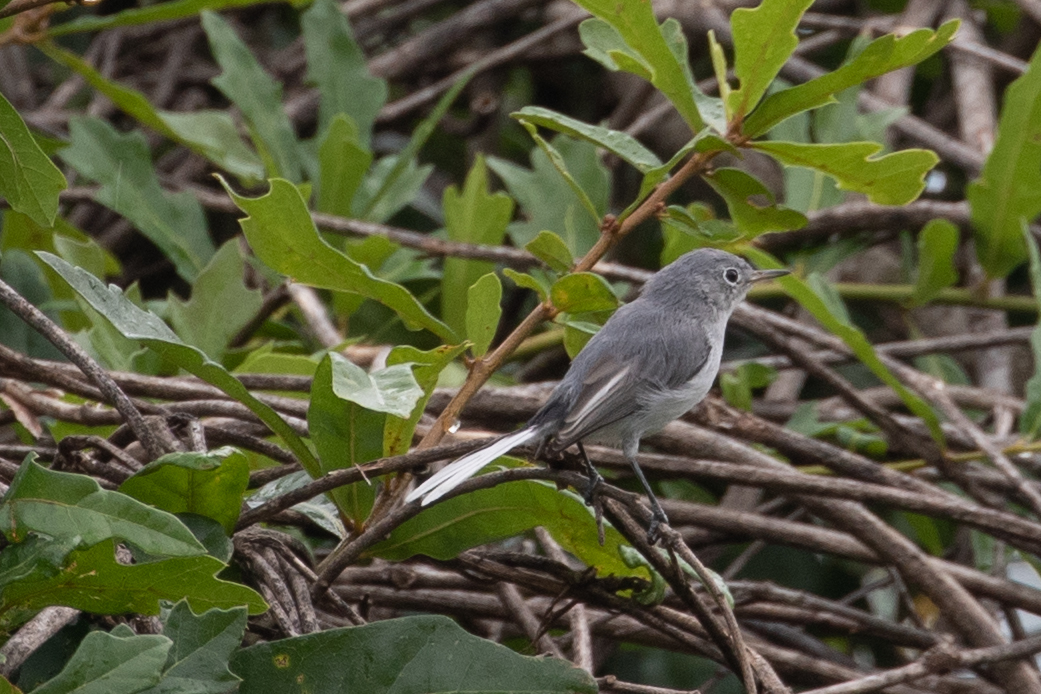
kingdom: Animalia
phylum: Chordata
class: Aves
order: Passeriformes
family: Polioptilidae
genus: Polioptila
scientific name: Polioptila caerulea
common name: Blue-gray gnatcatcher
